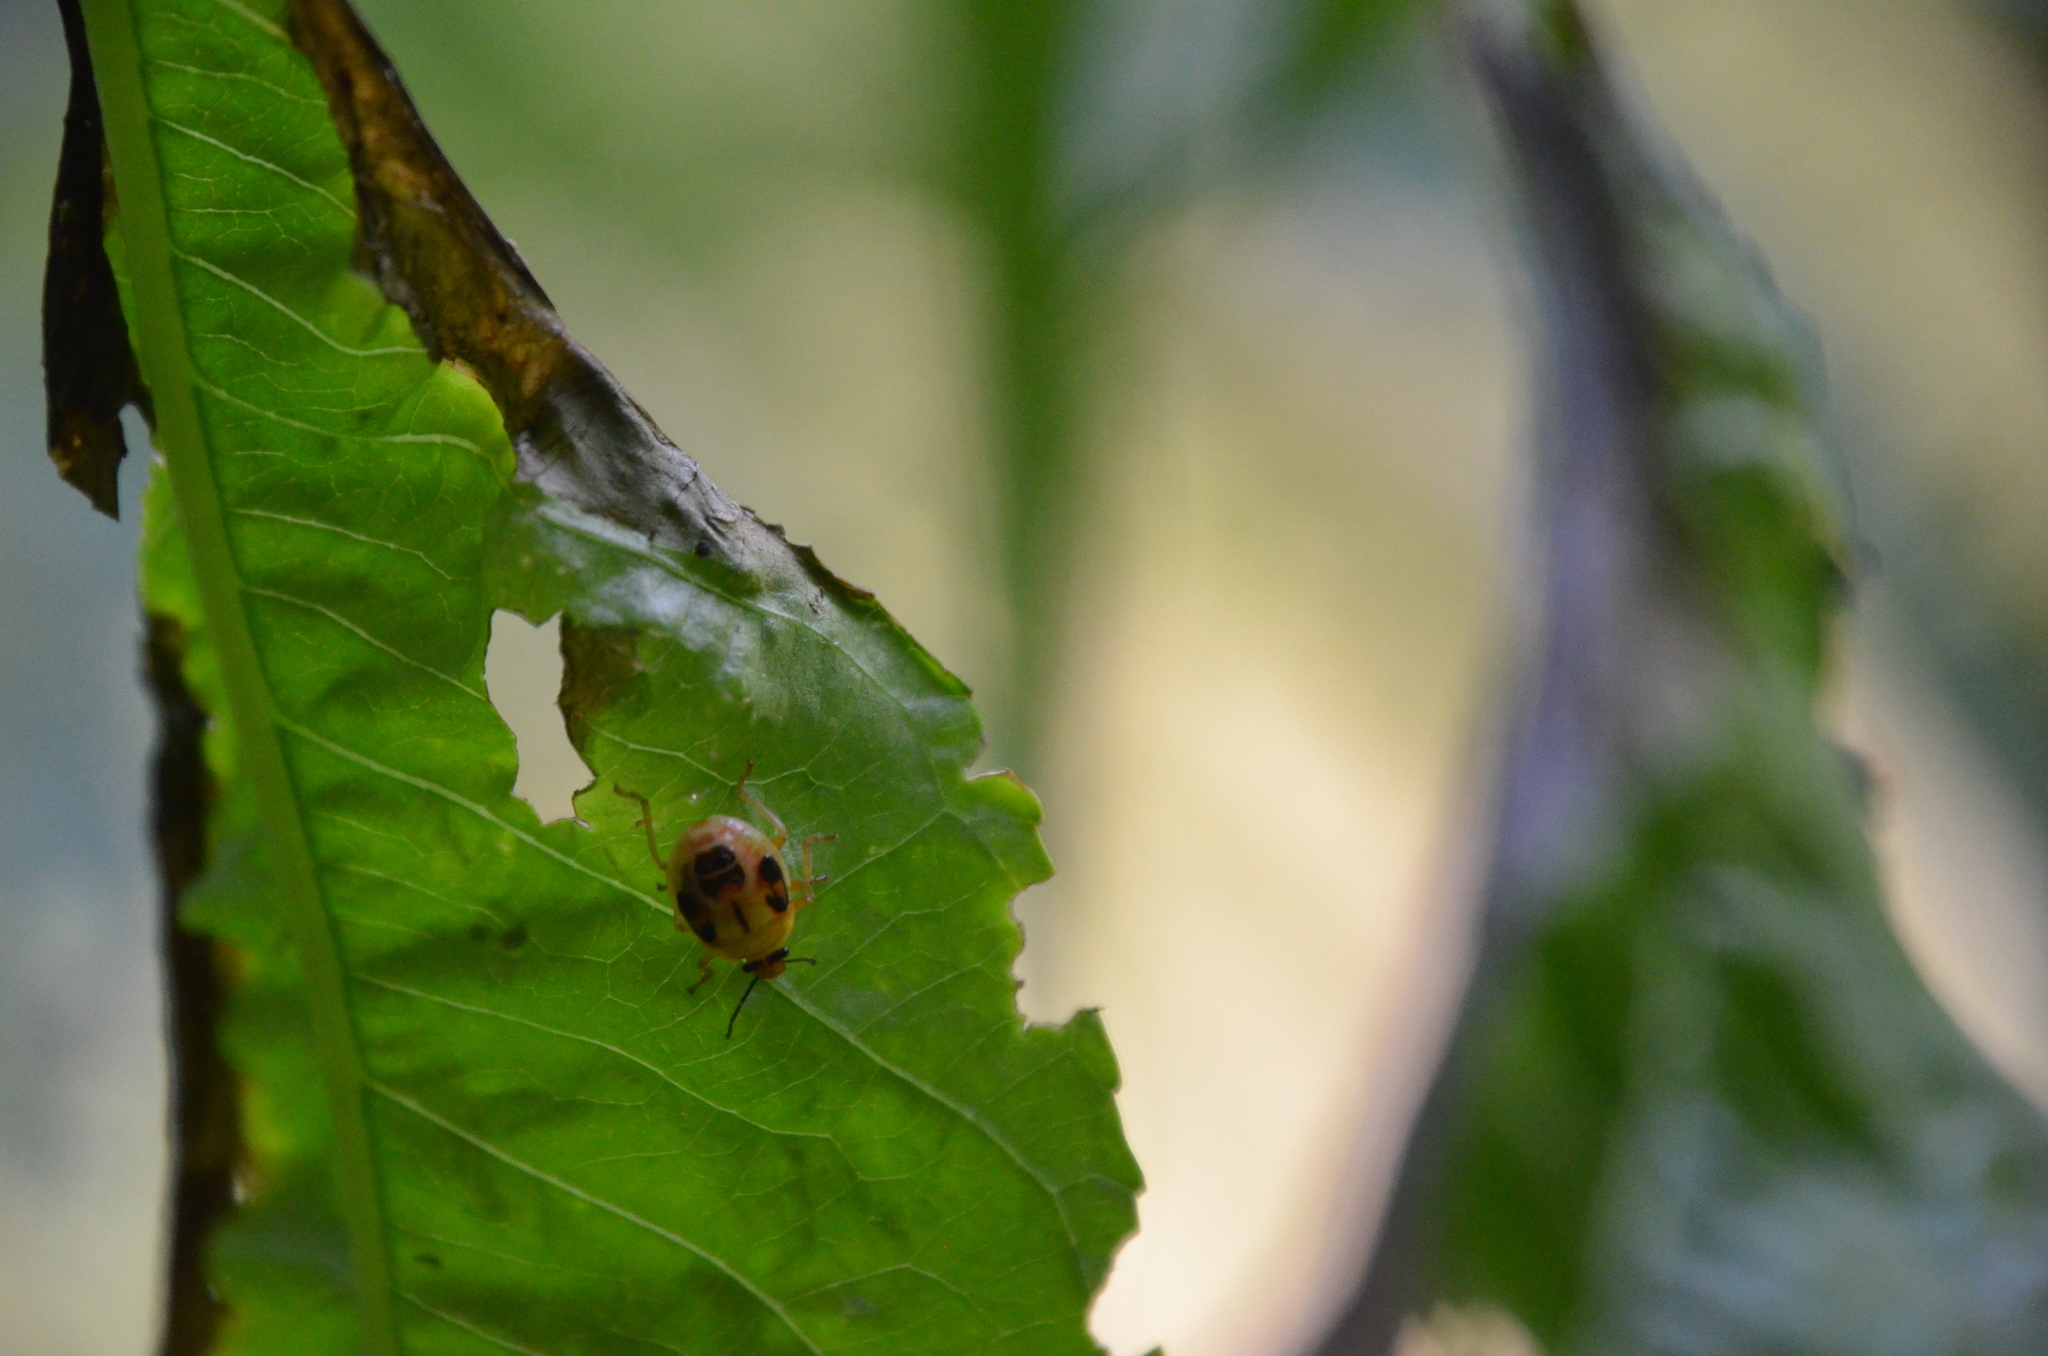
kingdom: Animalia
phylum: Arthropoda
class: Insecta
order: Hemiptera
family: Pentatomidae
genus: Supputius
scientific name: Supputius
